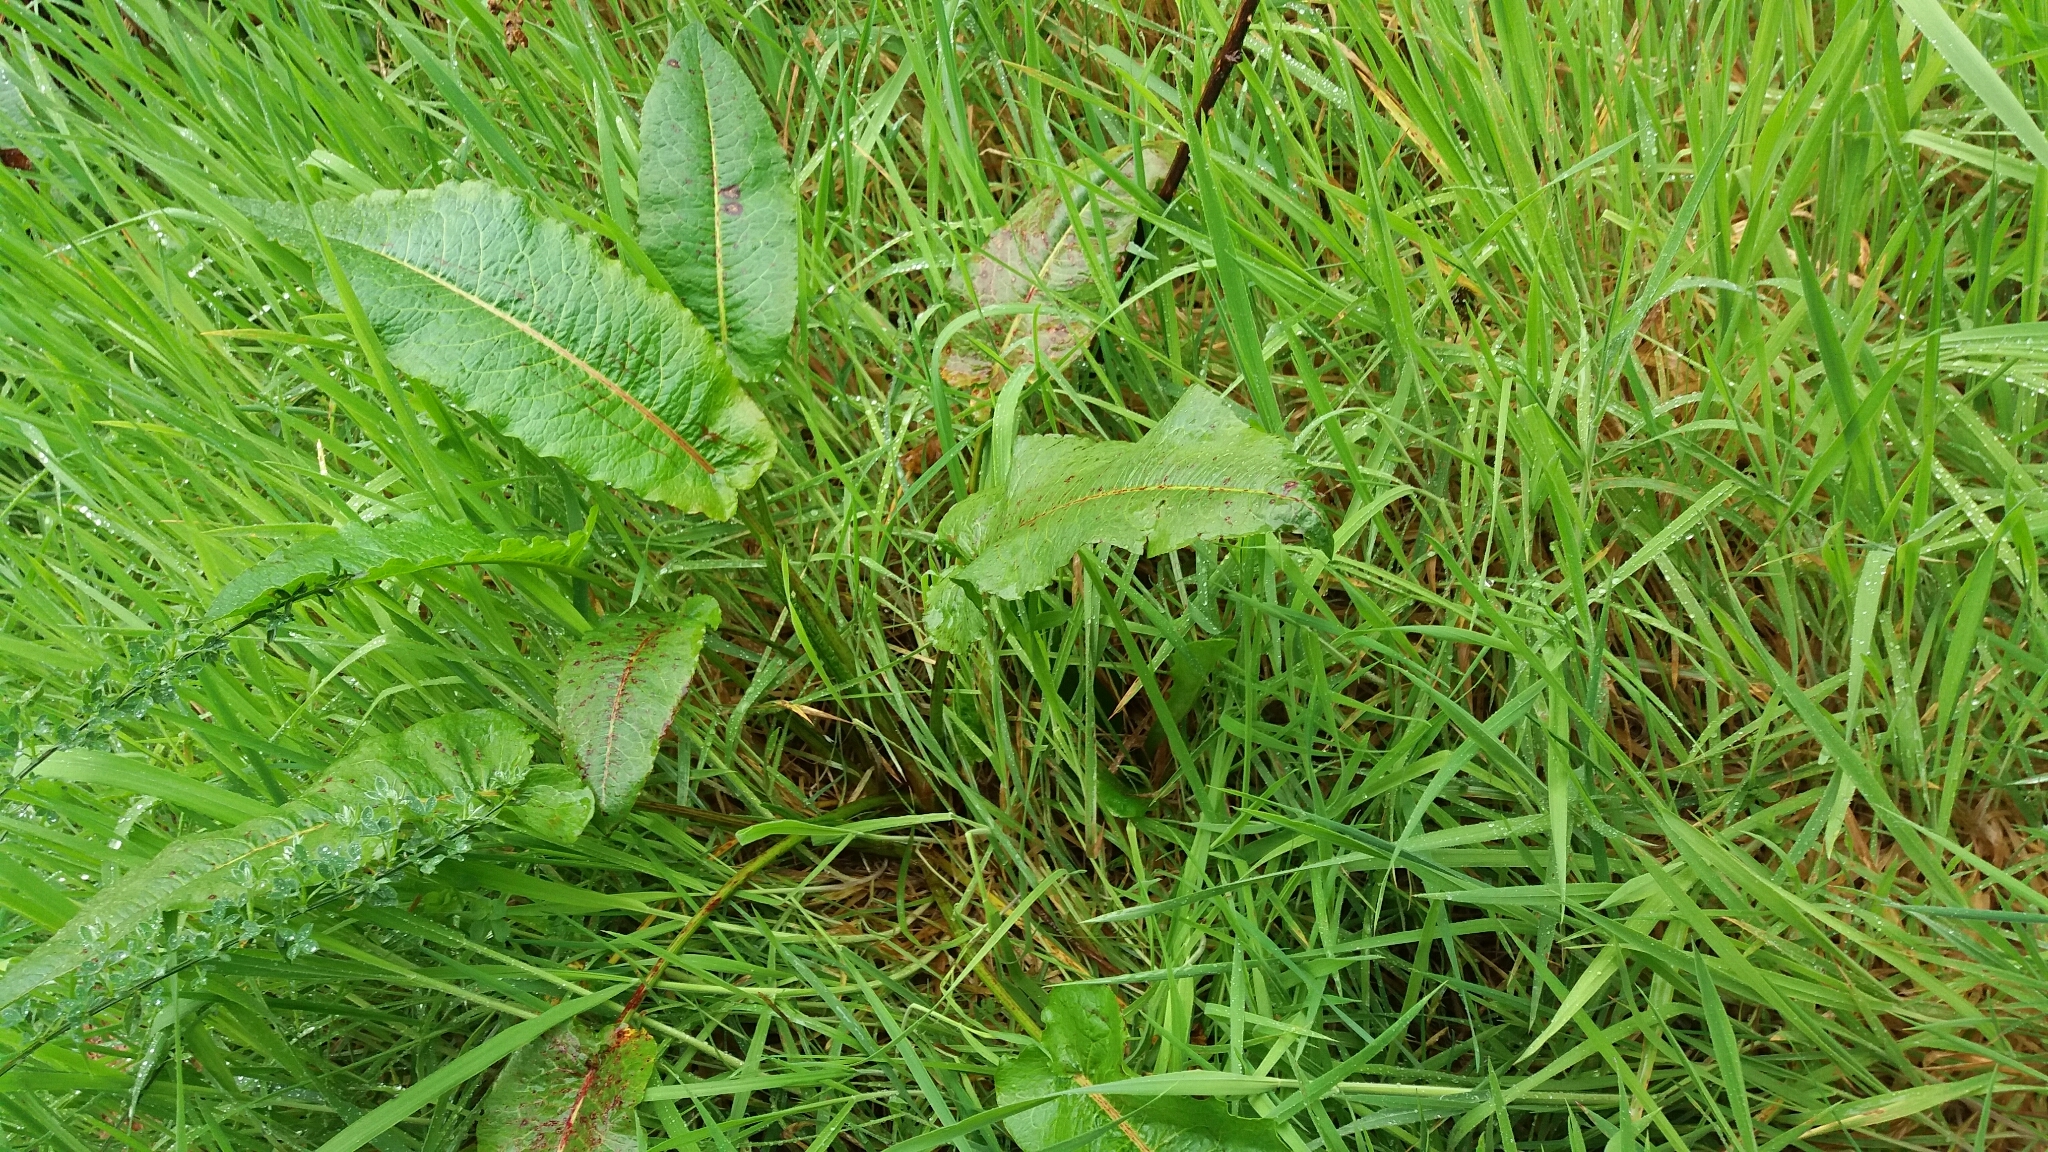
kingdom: Plantae
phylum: Tracheophyta
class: Magnoliopsida
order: Caryophyllales
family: Polygonaceae
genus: Rumex
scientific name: Rumex obtusifolius
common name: Bitter dock
